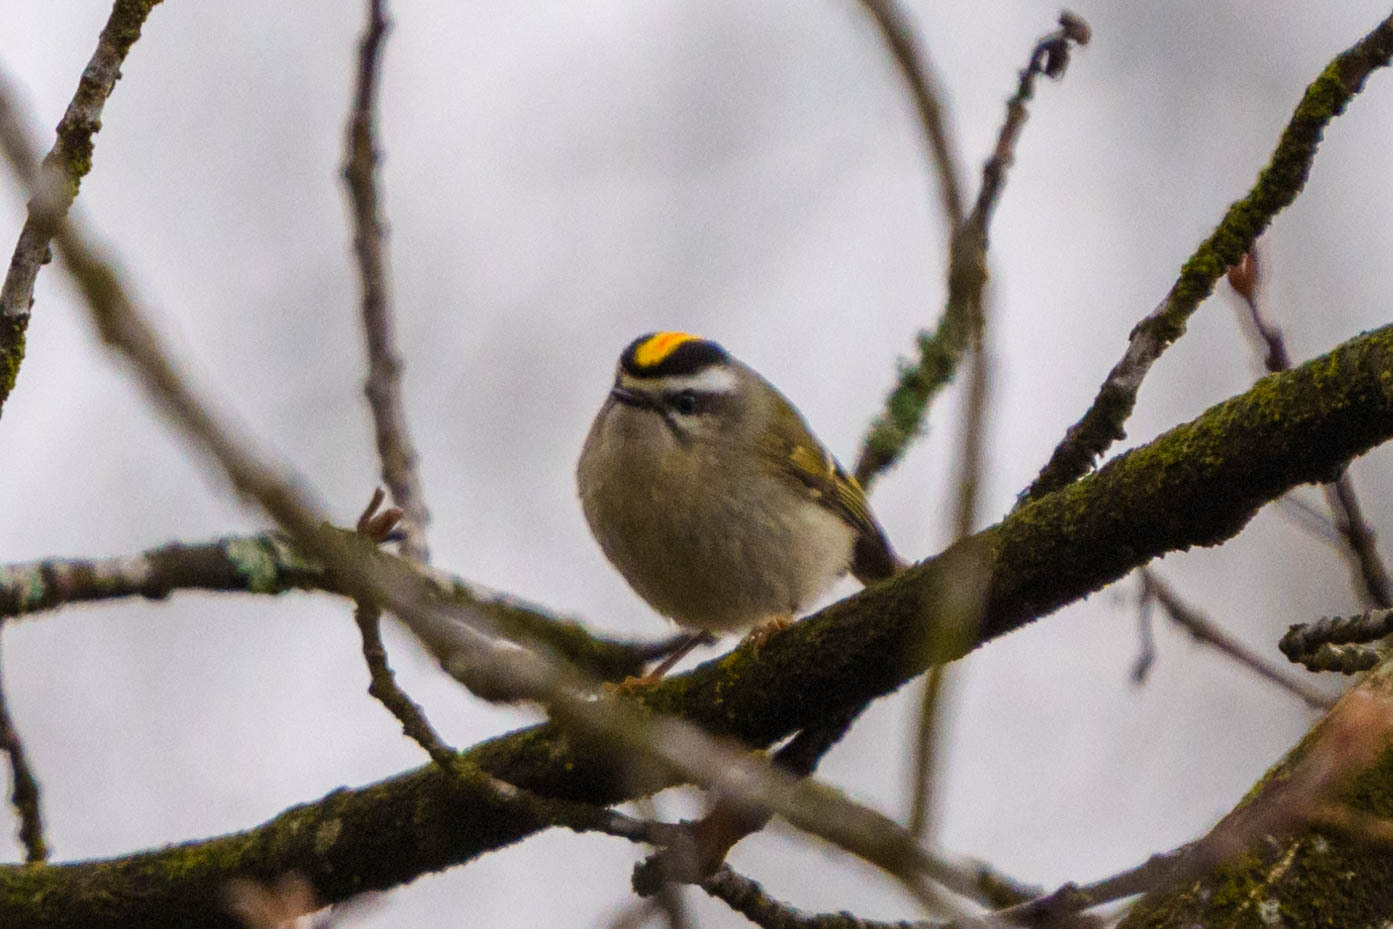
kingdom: Animalia
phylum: Chordata
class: Aves
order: Passeriformes
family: Regulidae
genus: Regulus
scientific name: Regulus satrapa
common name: Golden-crowned kinglet
